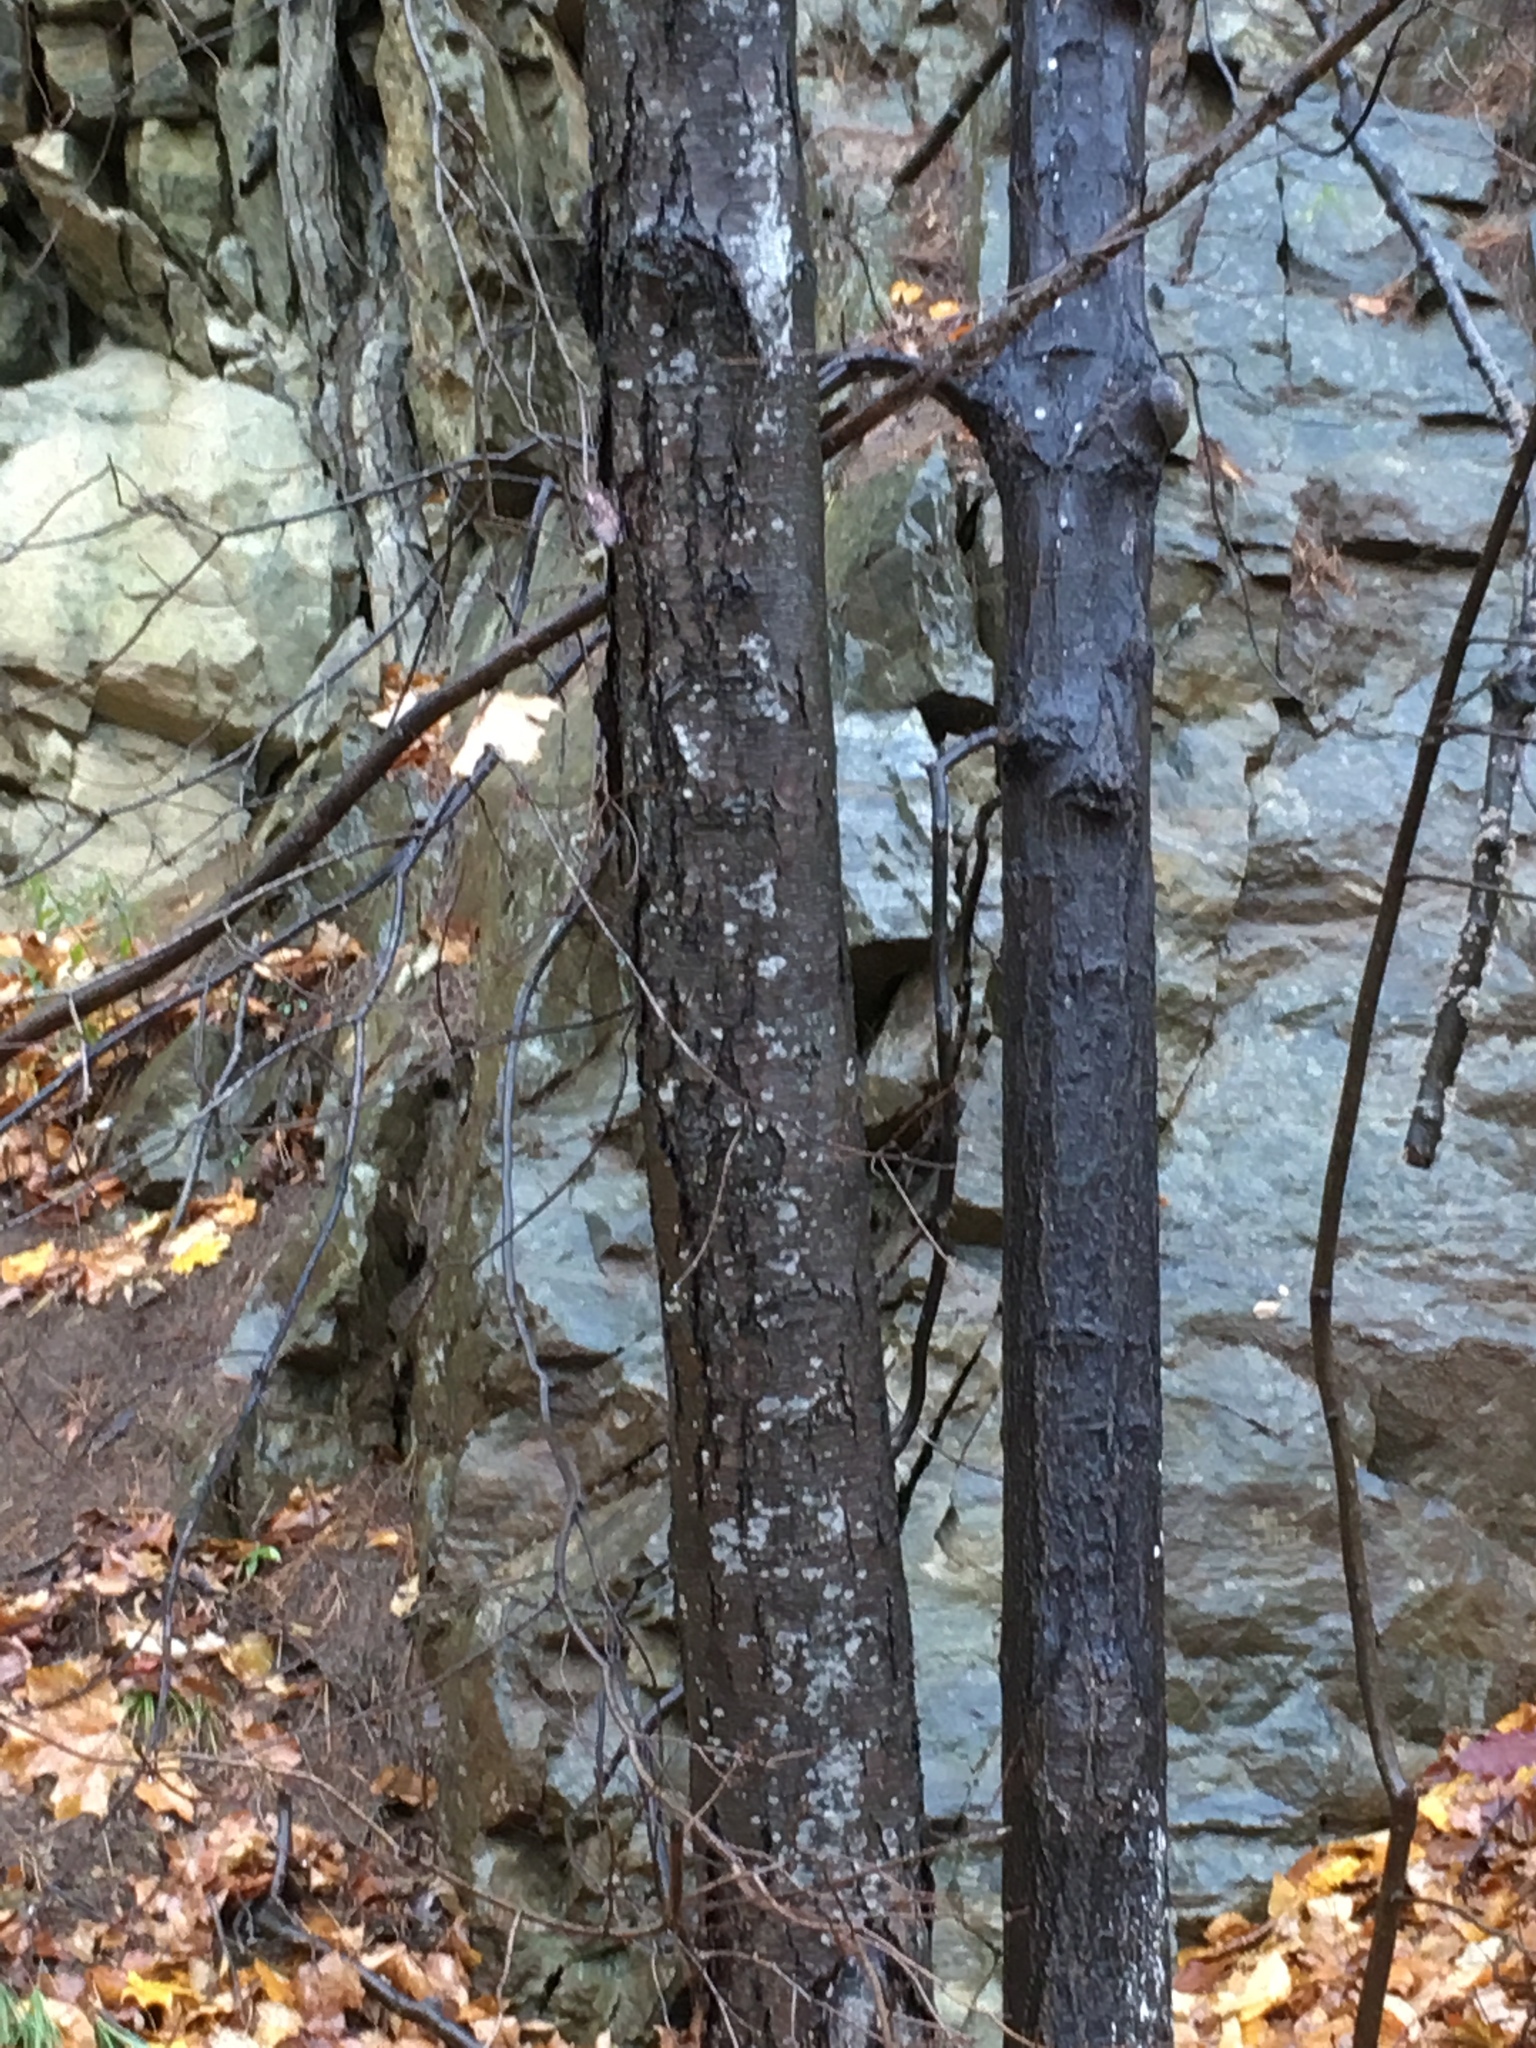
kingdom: Plantae
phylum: Tracheophyta
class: Magnoliopsida
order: Fagales
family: Betulaceae
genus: Betula
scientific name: Betula lenta
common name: Black birch
